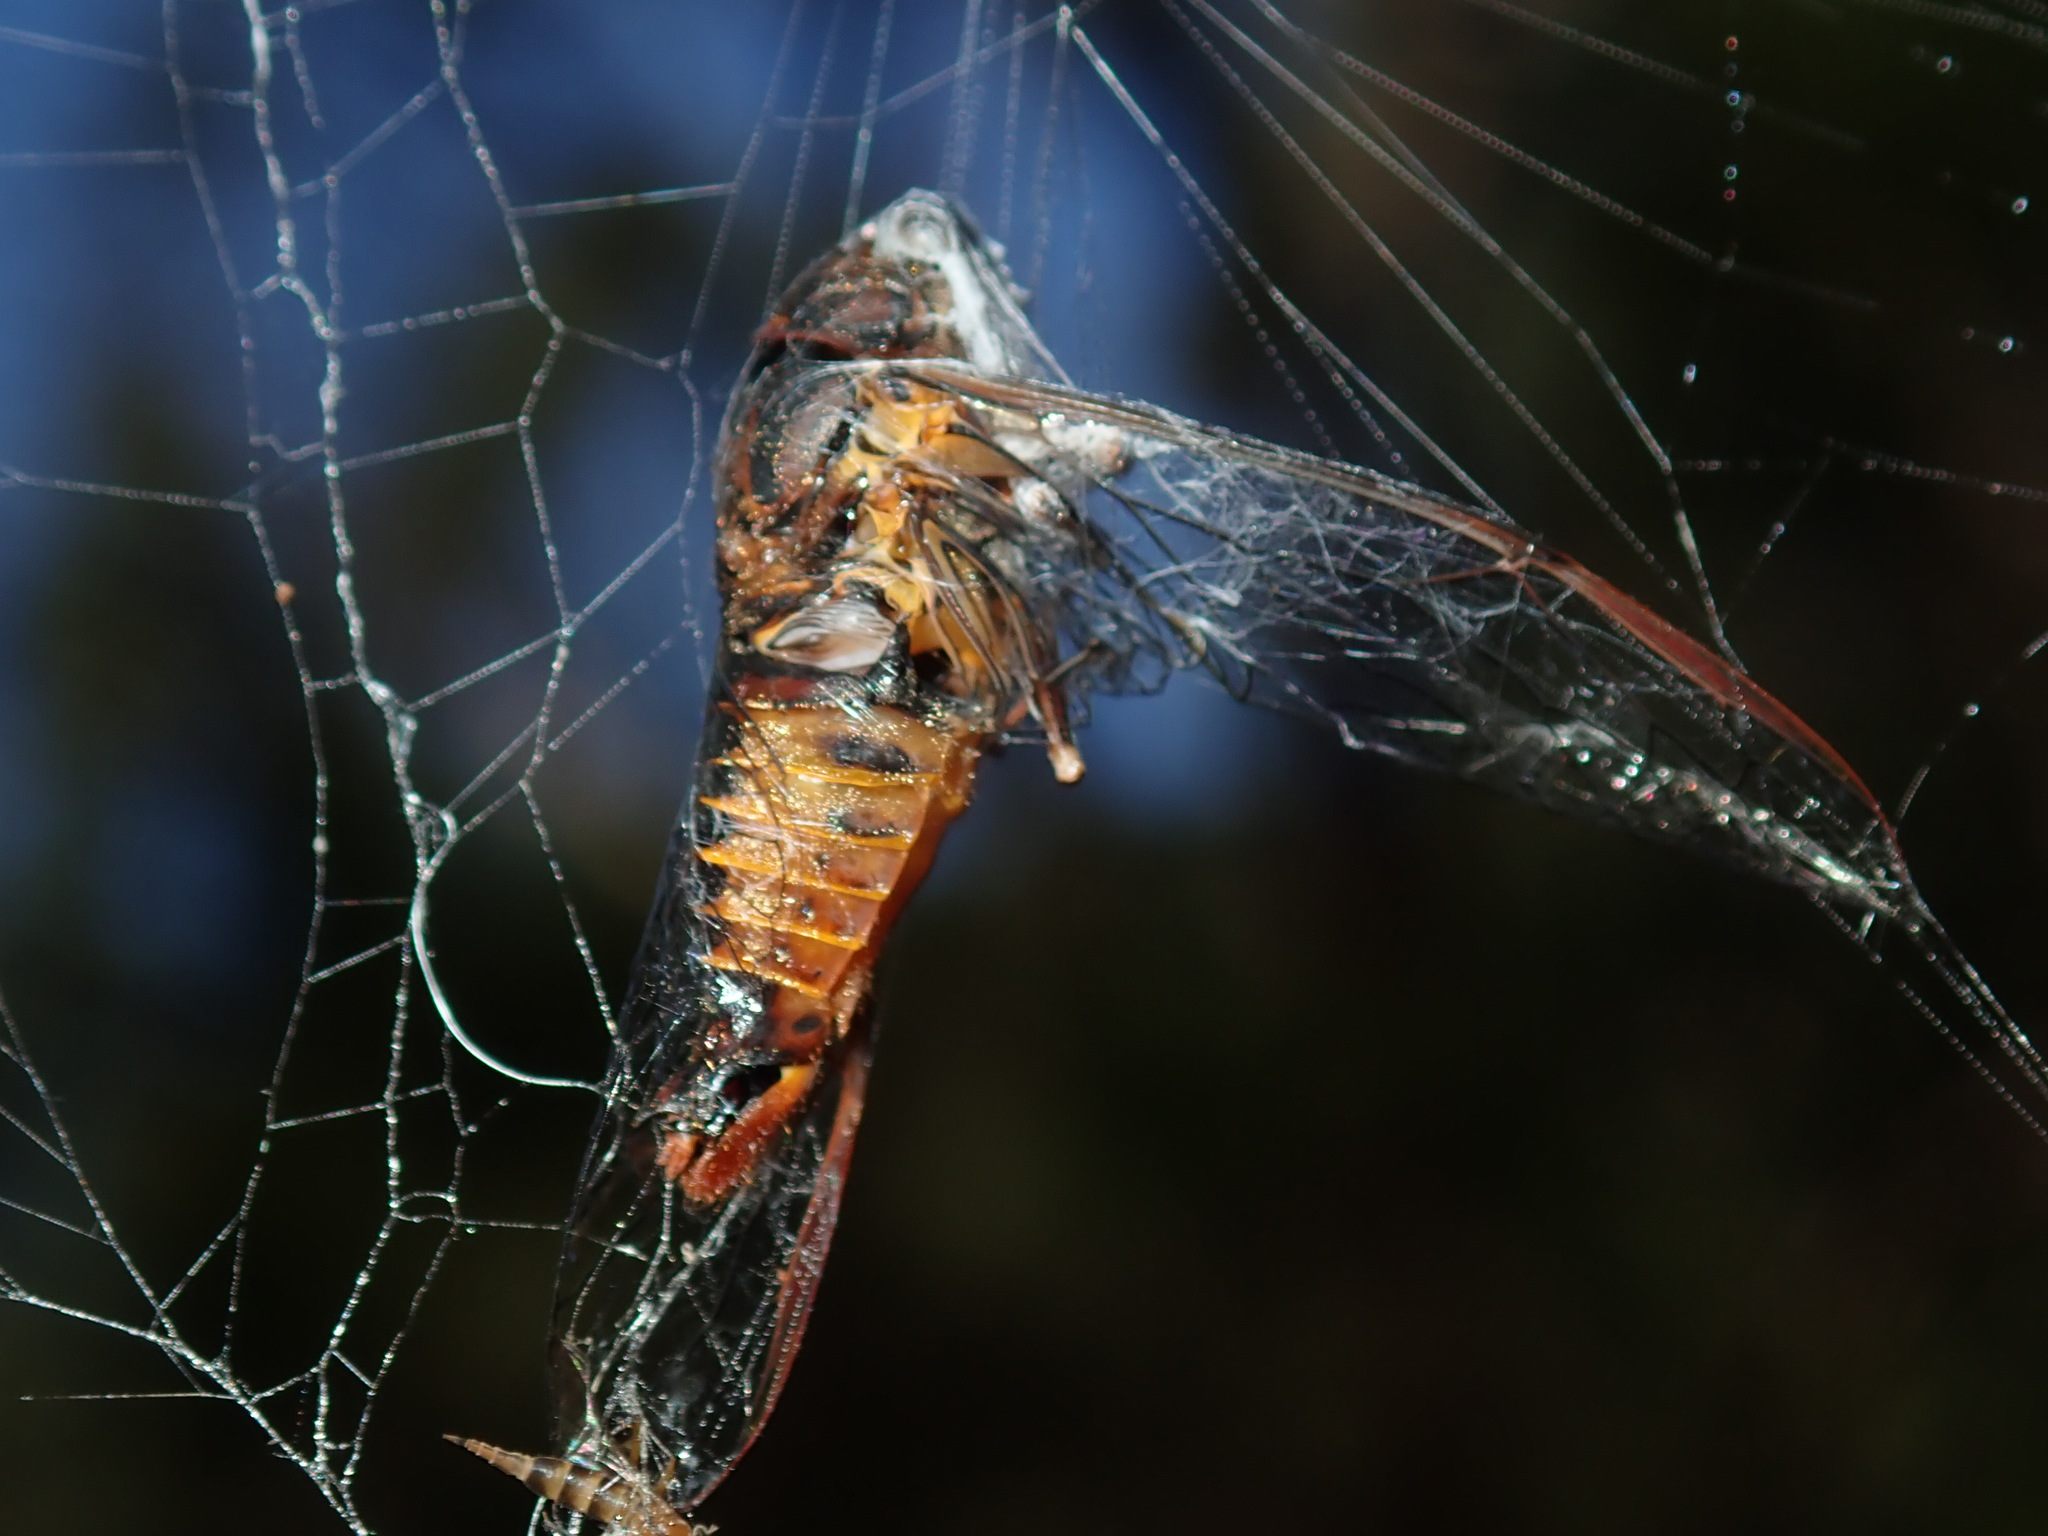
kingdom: Animalia
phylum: Arthropoda
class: Insecta
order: Hemiptera
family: Cicadidae
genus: Yoyetta
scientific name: Yoyetta cumberlandi
